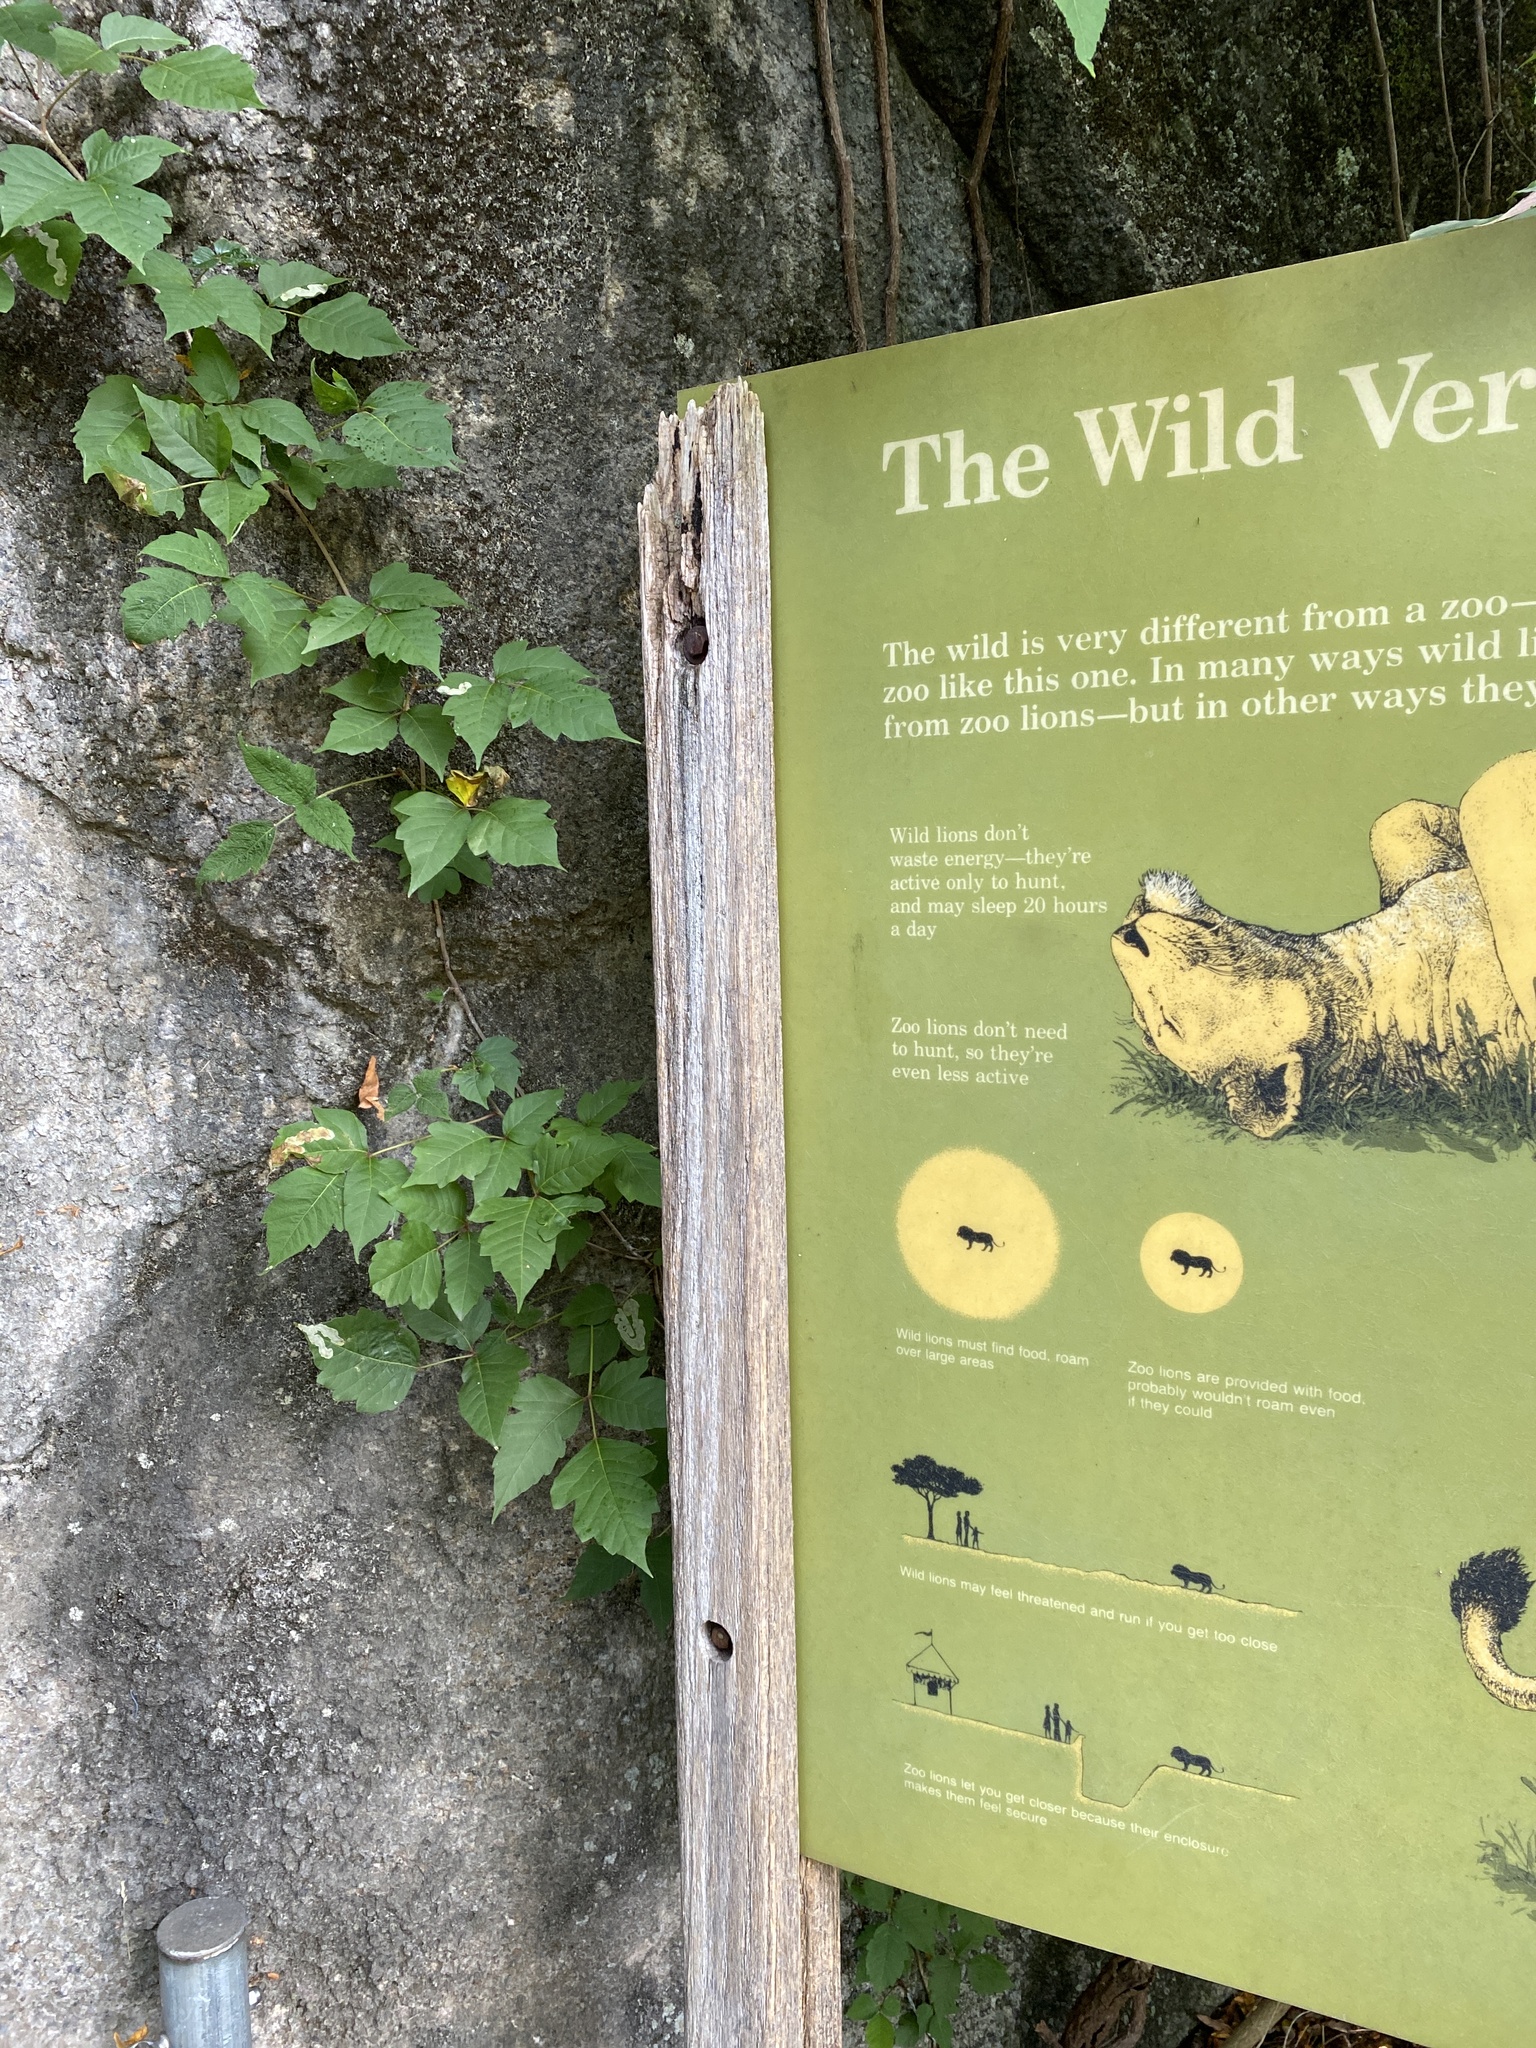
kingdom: Plantae
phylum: Tracheophyta
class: Magnoliopsida
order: Sapindales
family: Anacardiaceae
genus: Toxicodendron
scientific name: Toxicodendron radicans
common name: Poison ivy
